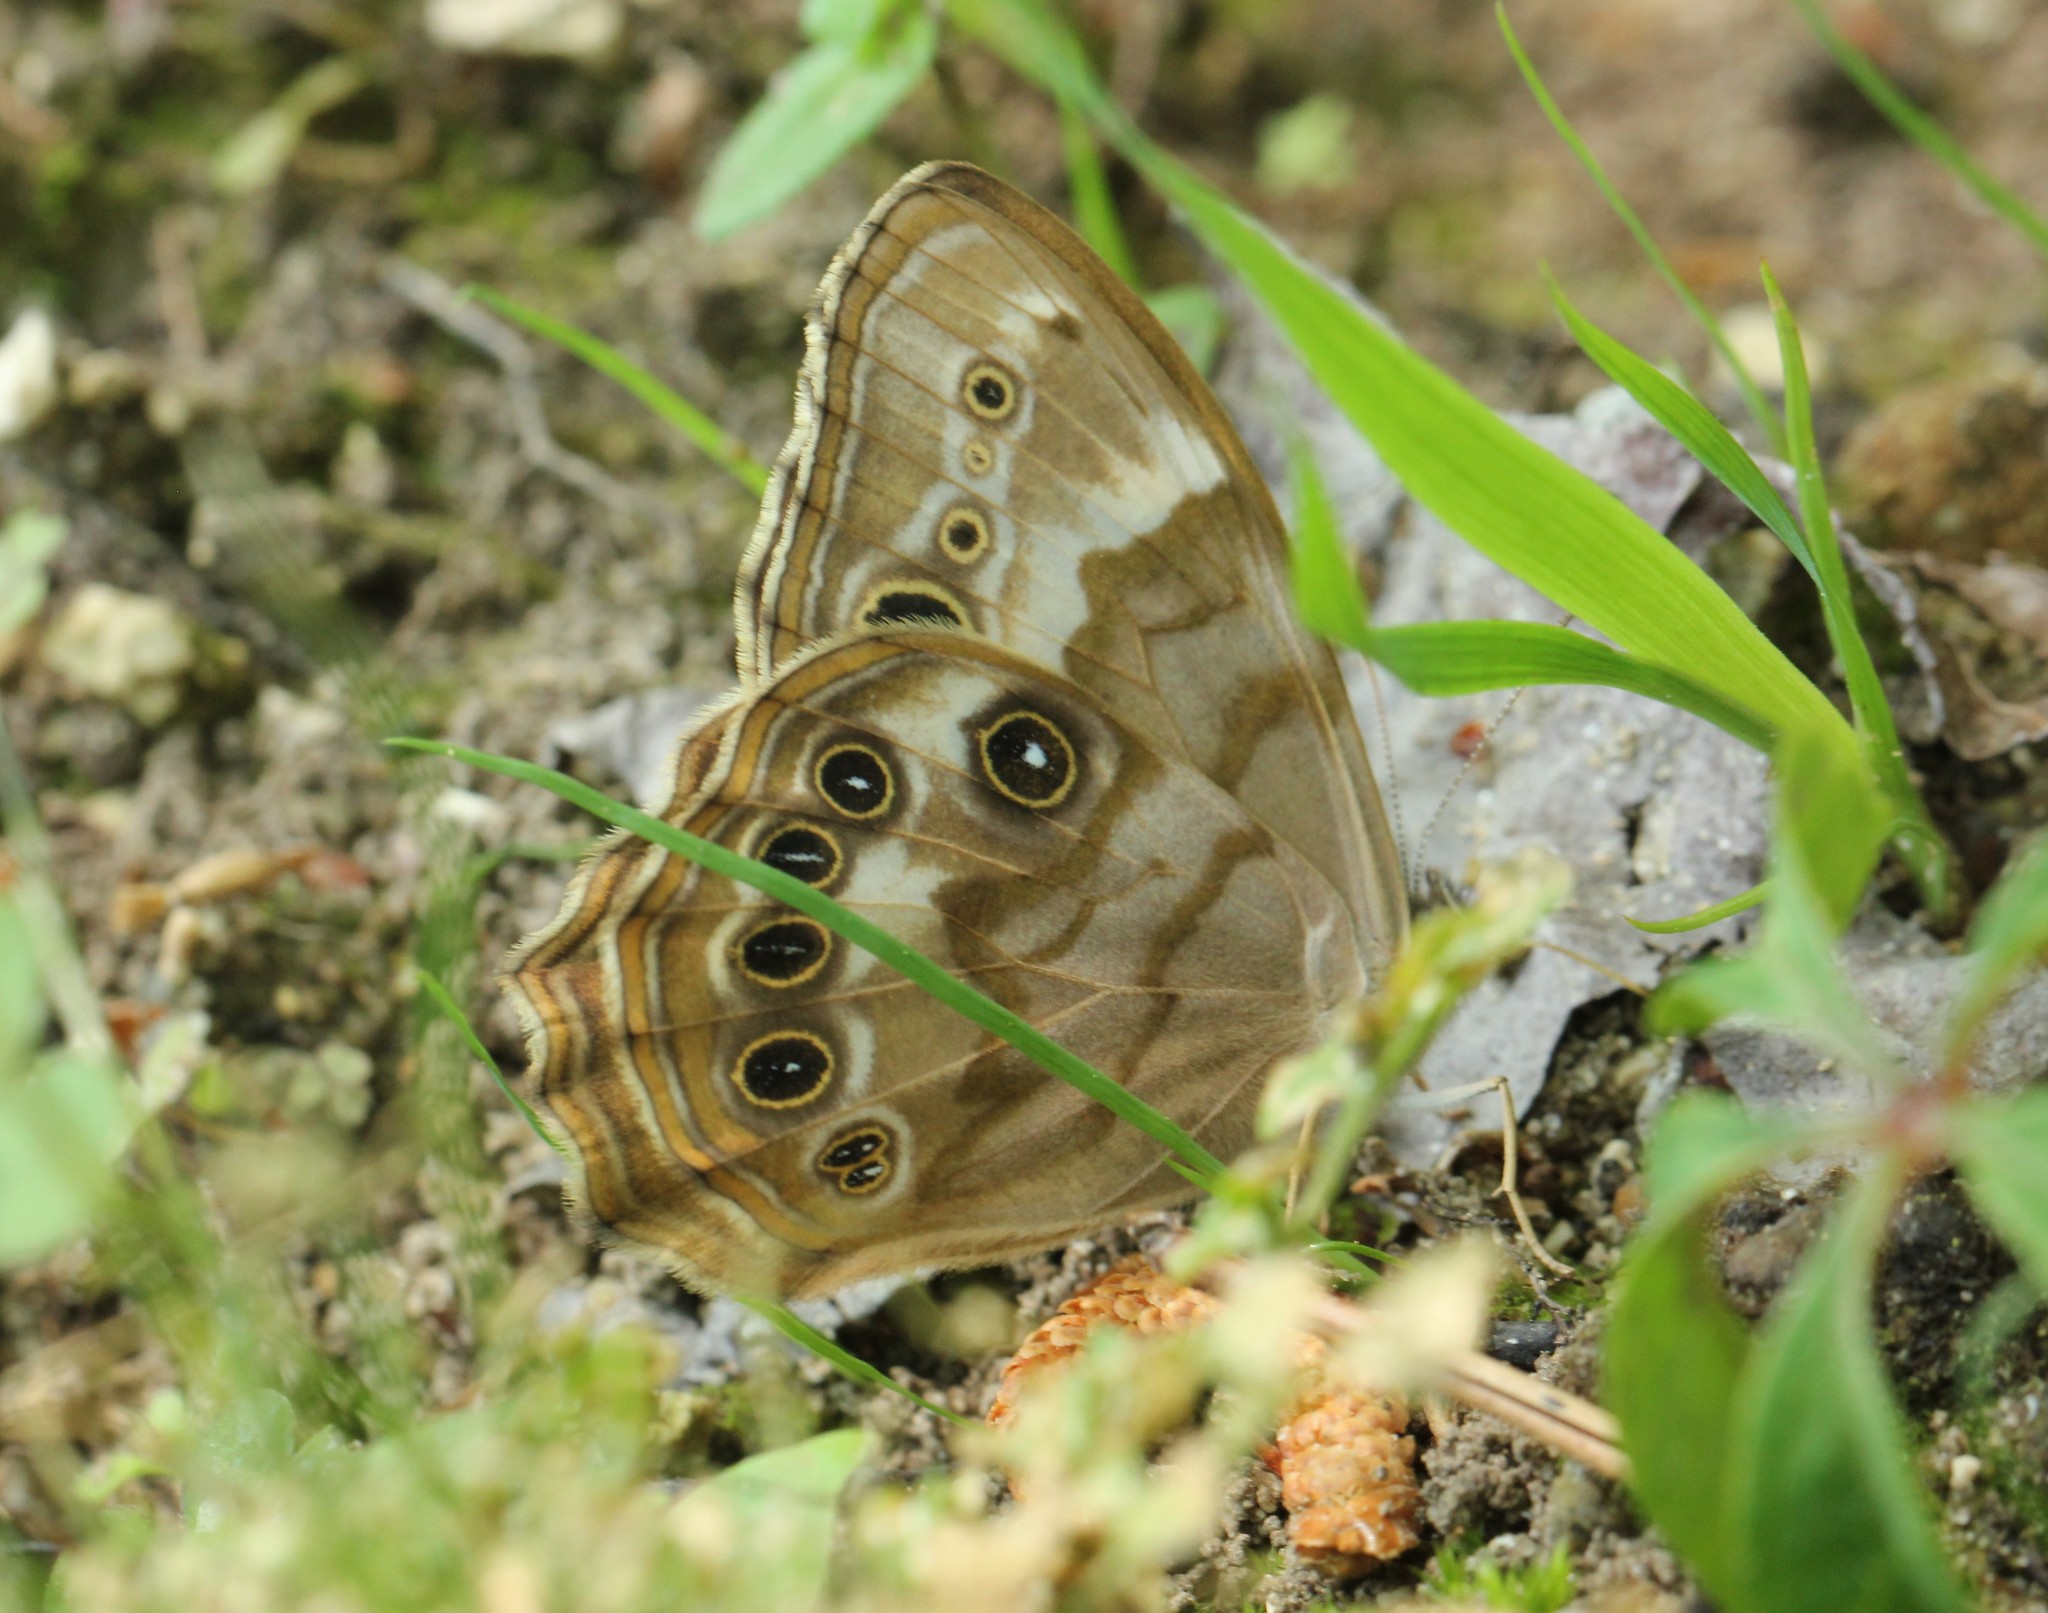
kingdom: Animalia
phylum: Arthropoda
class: Insecta
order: Lepidoptera
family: Nymphalidae
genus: Enodia
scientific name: Enodia portlandia
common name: Southern pearly-eye
